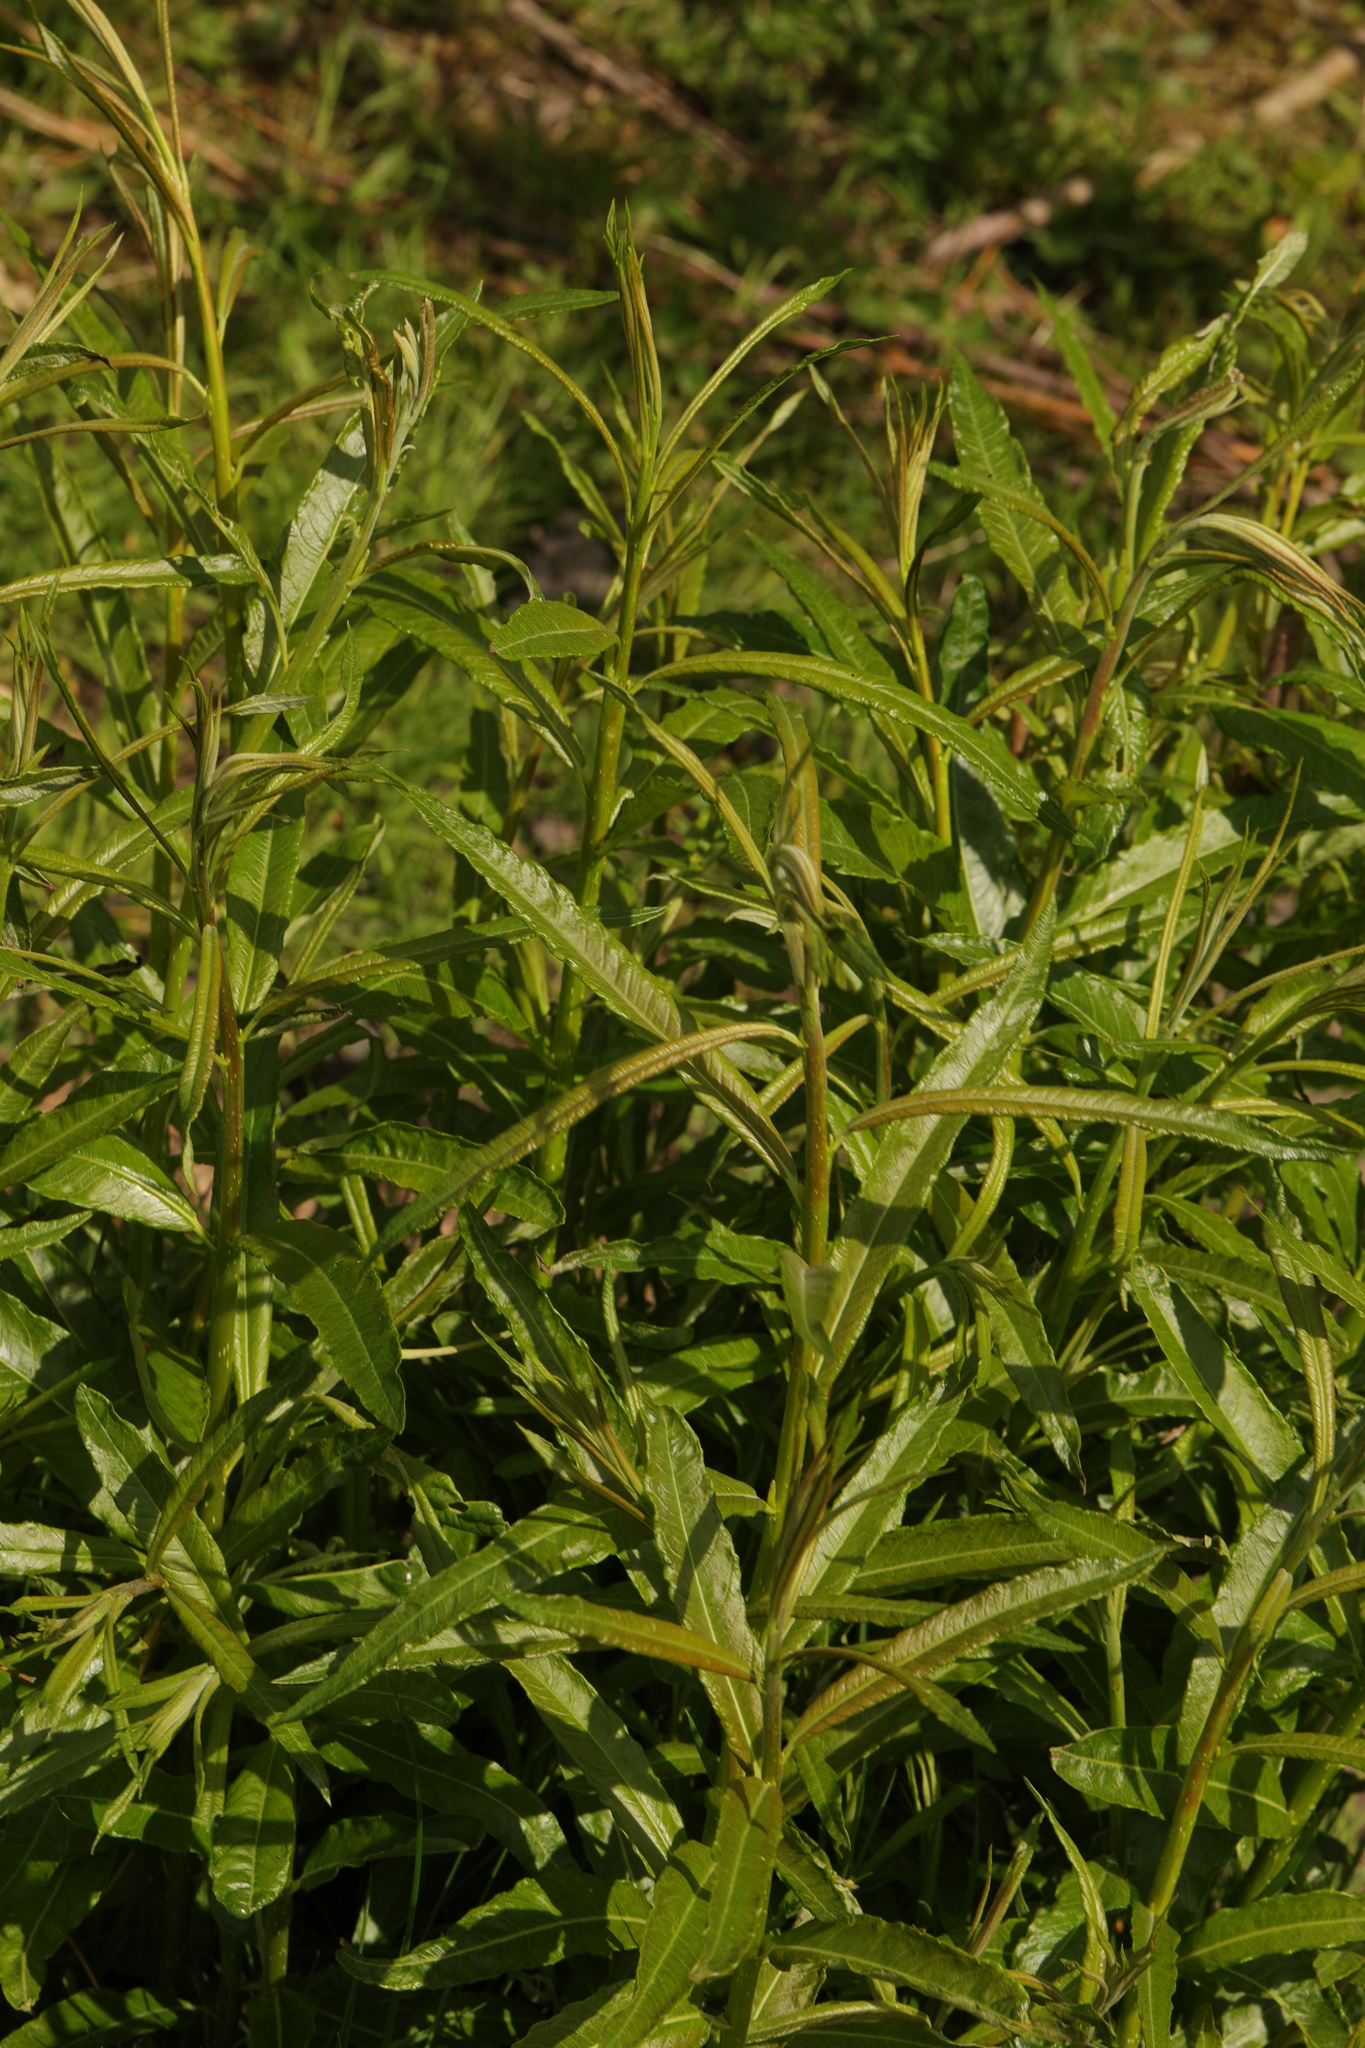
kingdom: Plantae
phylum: Tracheophyta
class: Magnoliopsida
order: Malpighiales
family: Salicaceae
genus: Salix
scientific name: Salix viminalis
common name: Osier
